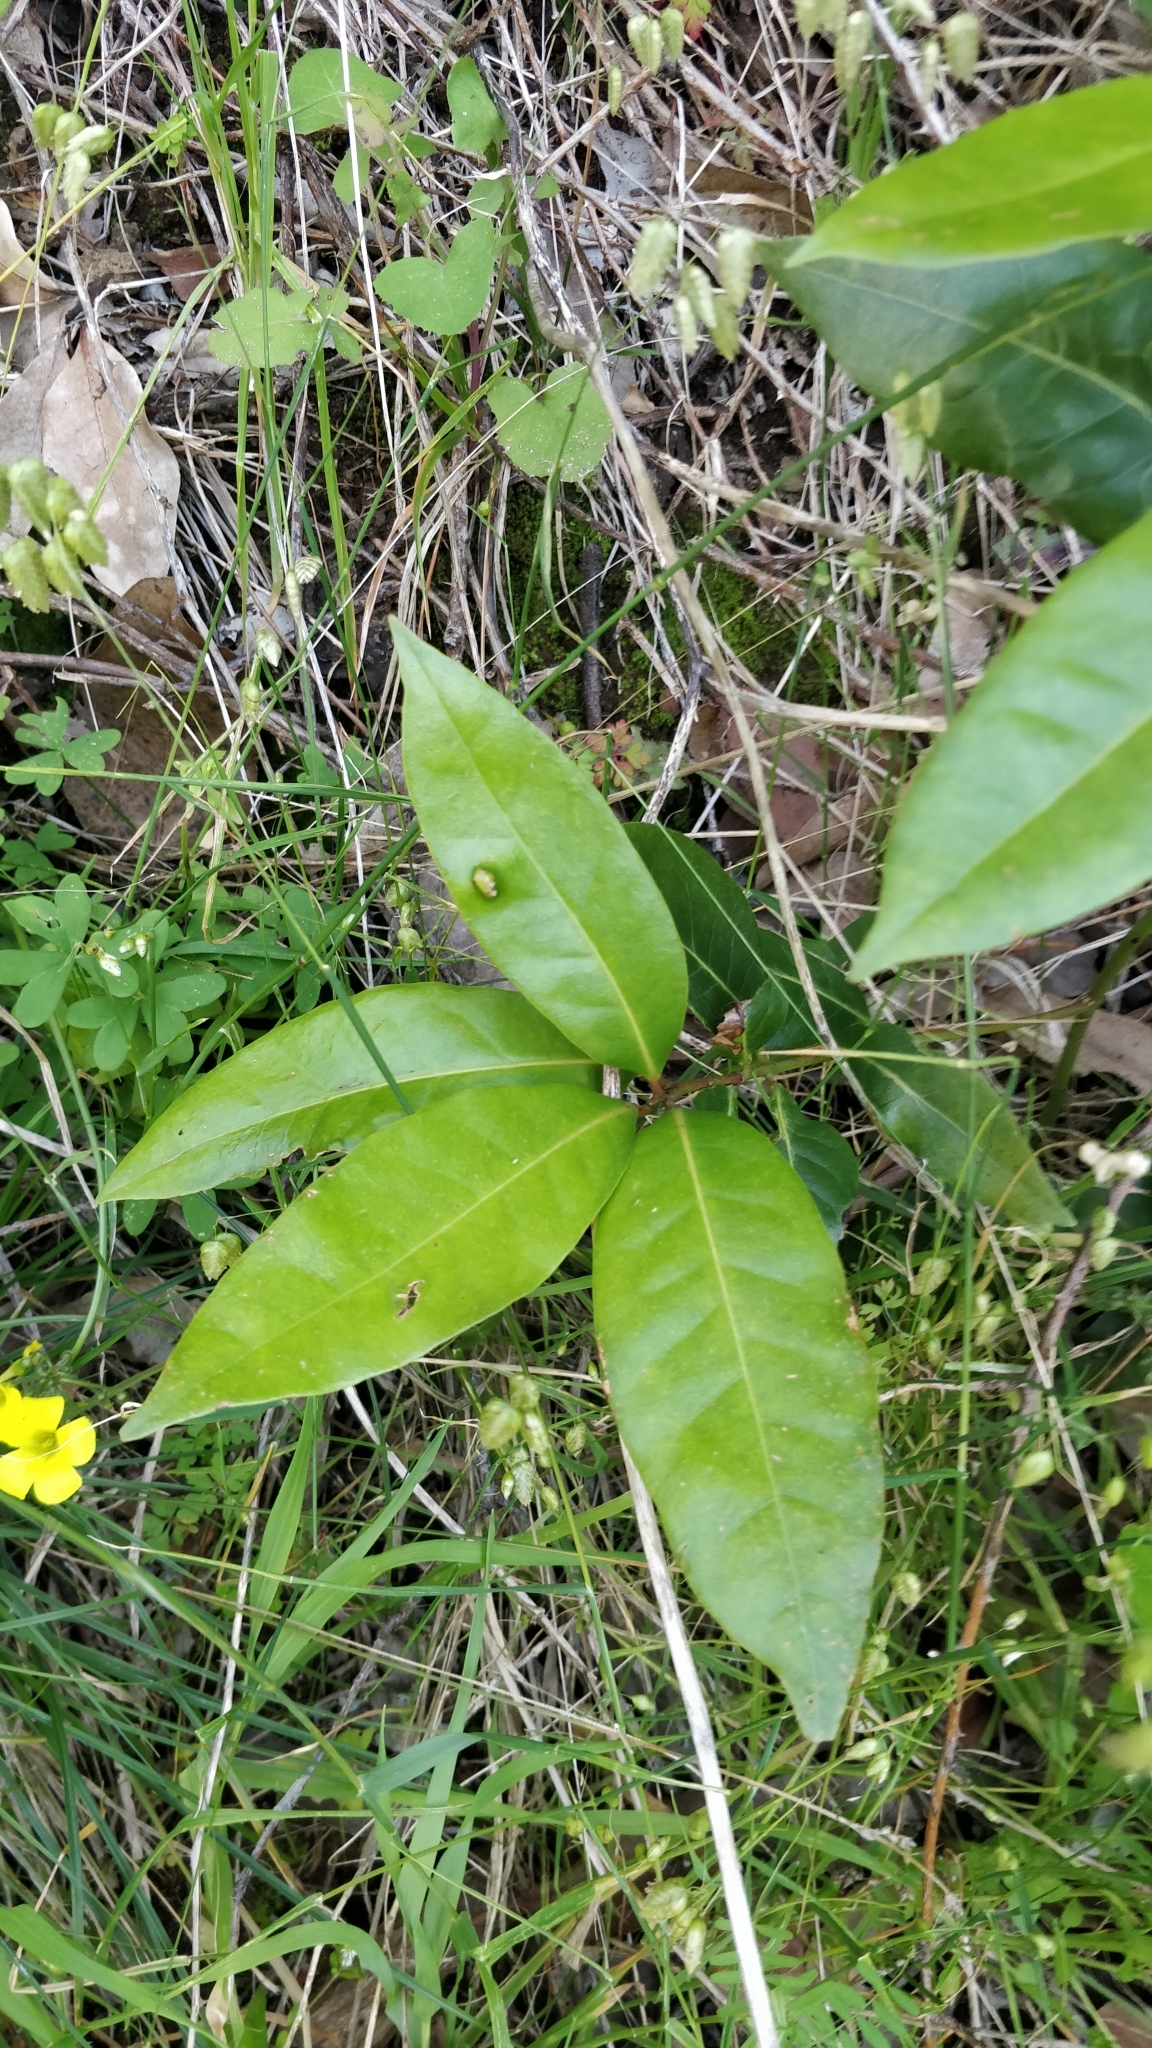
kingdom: Plantae
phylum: Tracheophyta
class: Magnoliopsida
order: Laurales
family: Lauraceae
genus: Apollonias
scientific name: Apollonias barbujana
